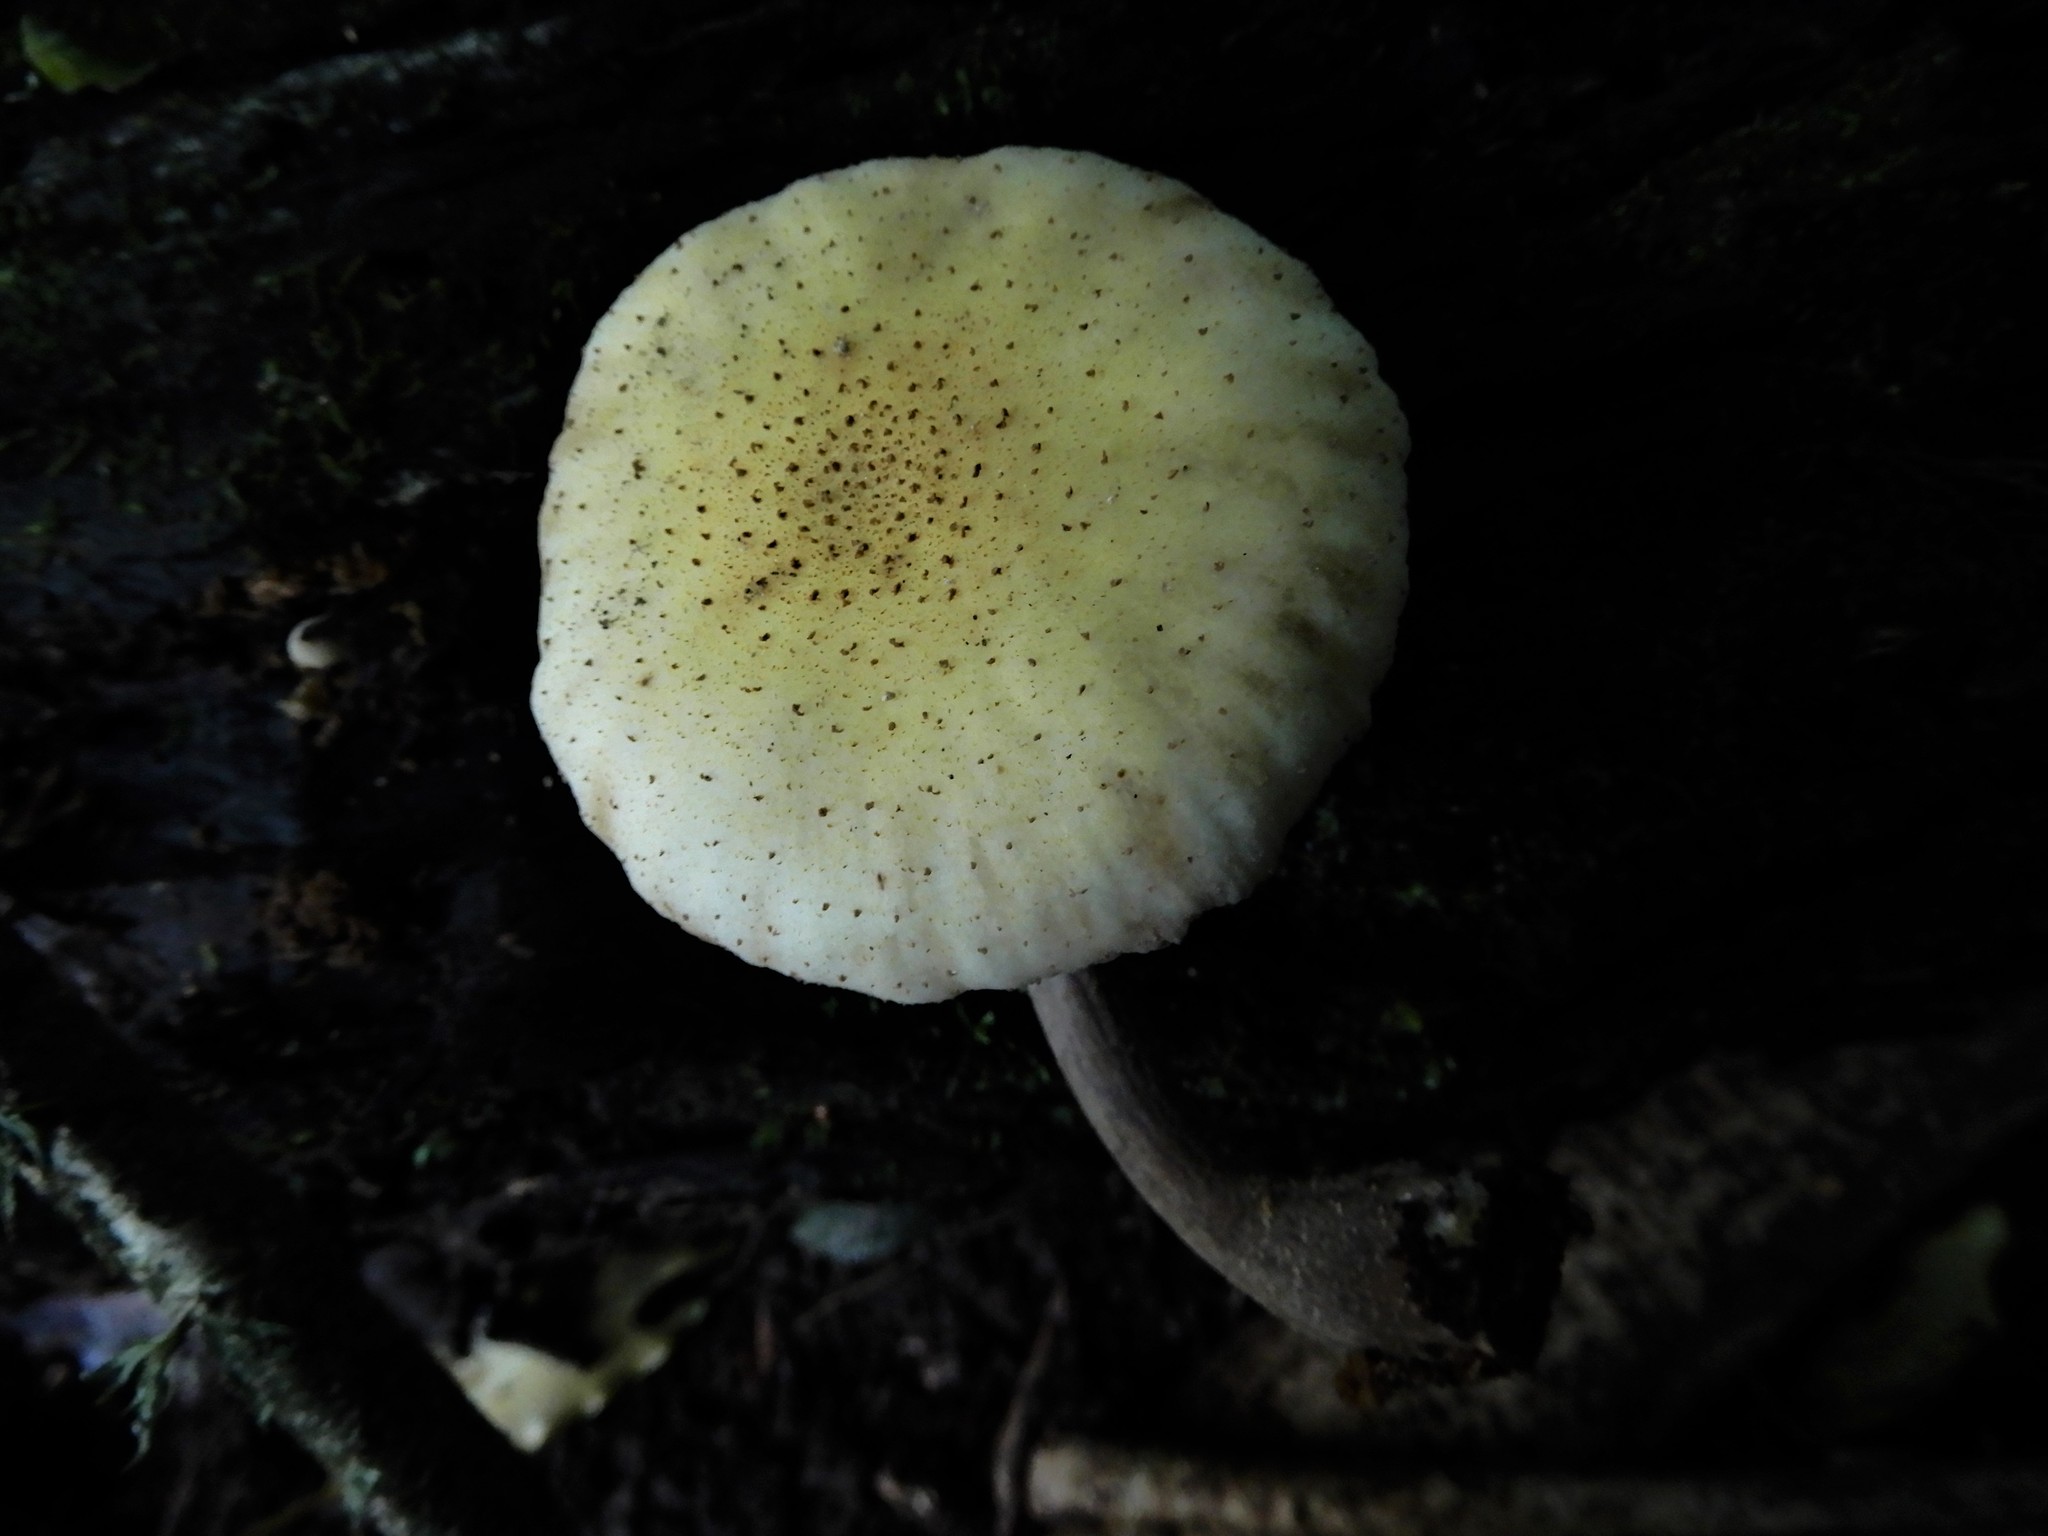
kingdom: Fungi
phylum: Basidiomycota
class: Agaricomycetes
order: Agaricales
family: Physalacriaceae
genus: Armillaria
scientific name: Armillaria limonea
